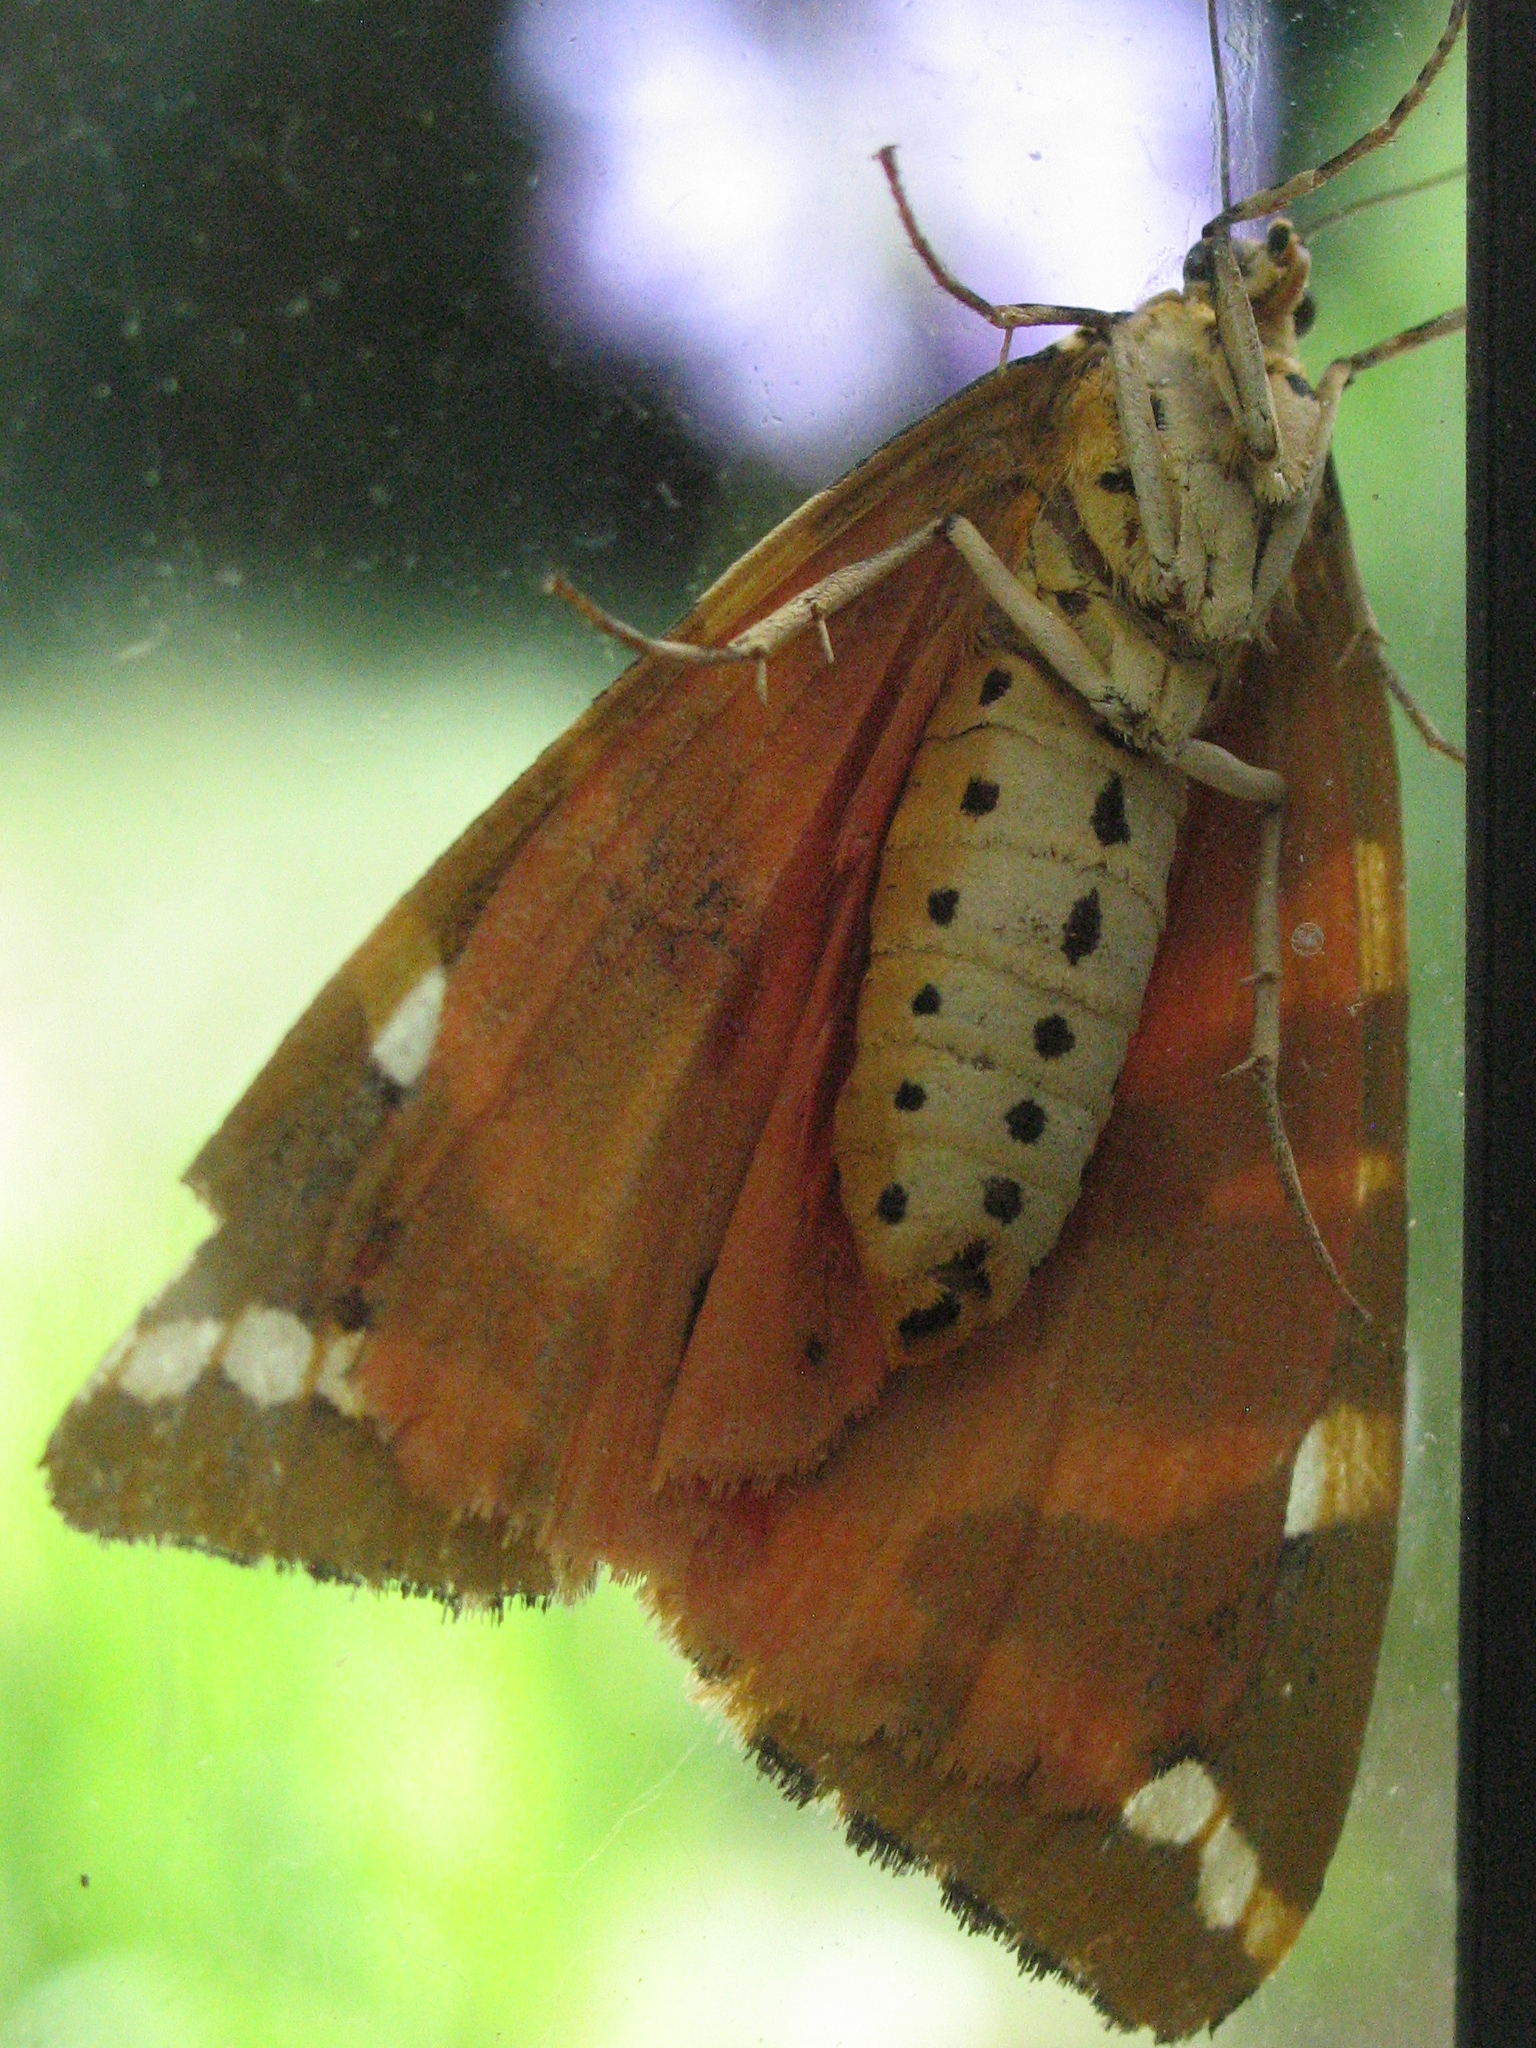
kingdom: Animalia
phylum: Arthropoda
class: Insecta
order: Lepidoptera
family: Erebidae
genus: Euplagia
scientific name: Euplagia quadripunctaria
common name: Jersey tiger
